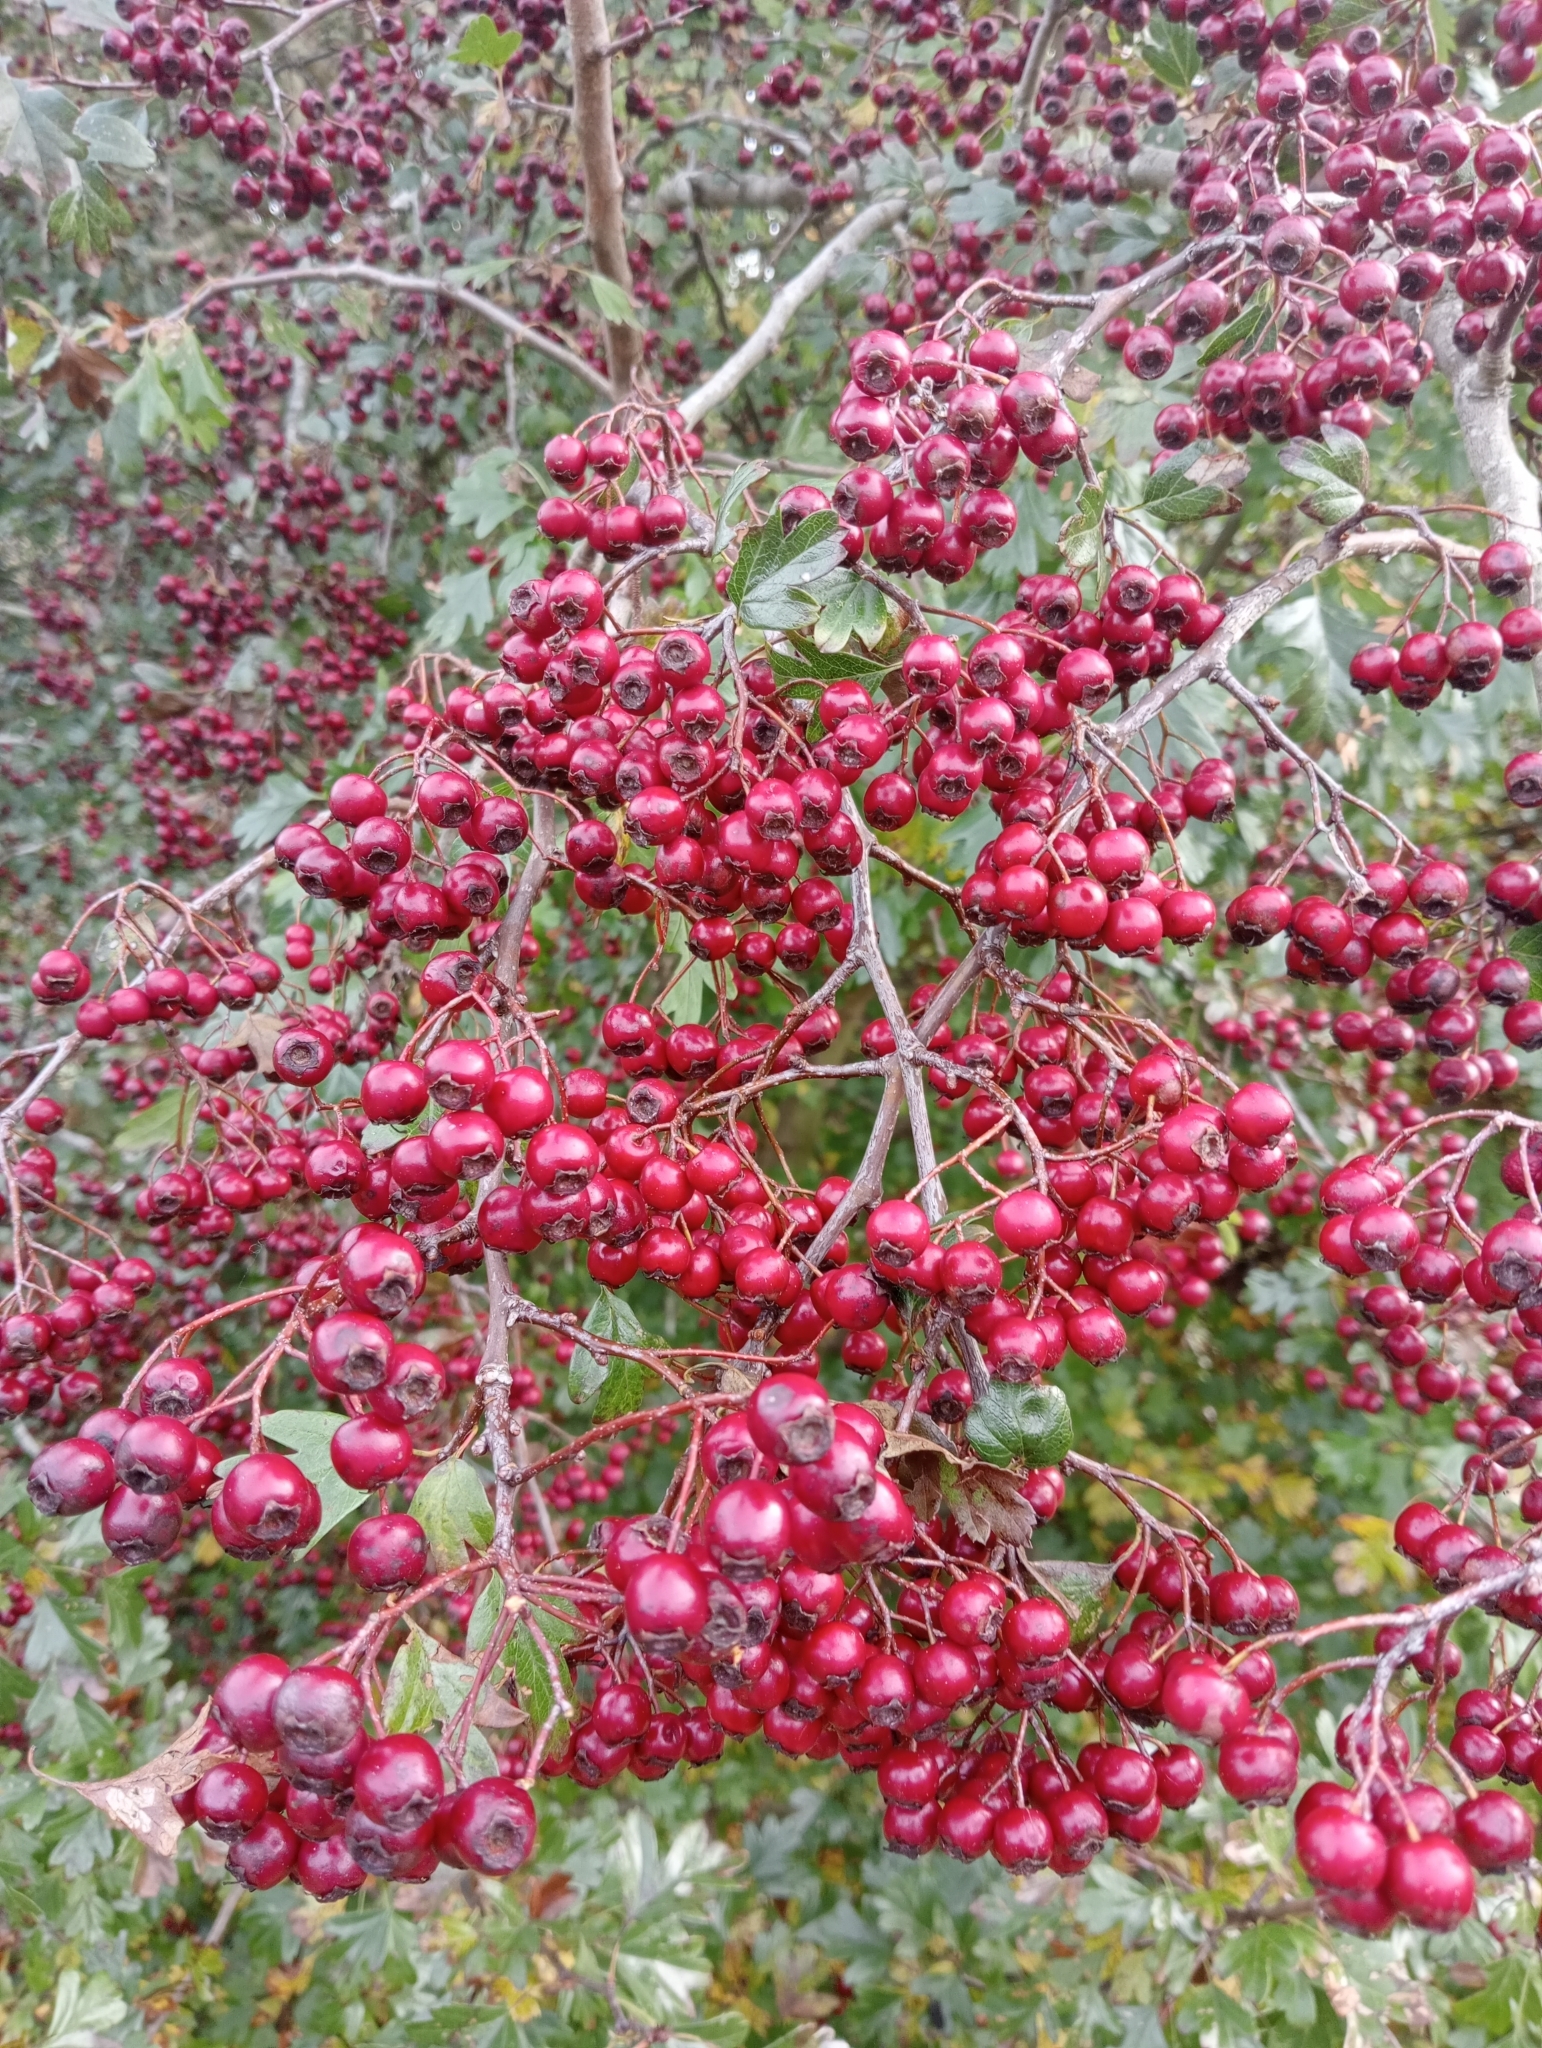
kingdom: Plantae
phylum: Tracheophyta
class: Magnoliopsida
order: Rosales
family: Rosaceae
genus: Crataegus
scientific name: Crataegus monogyna
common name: Hawthorn
